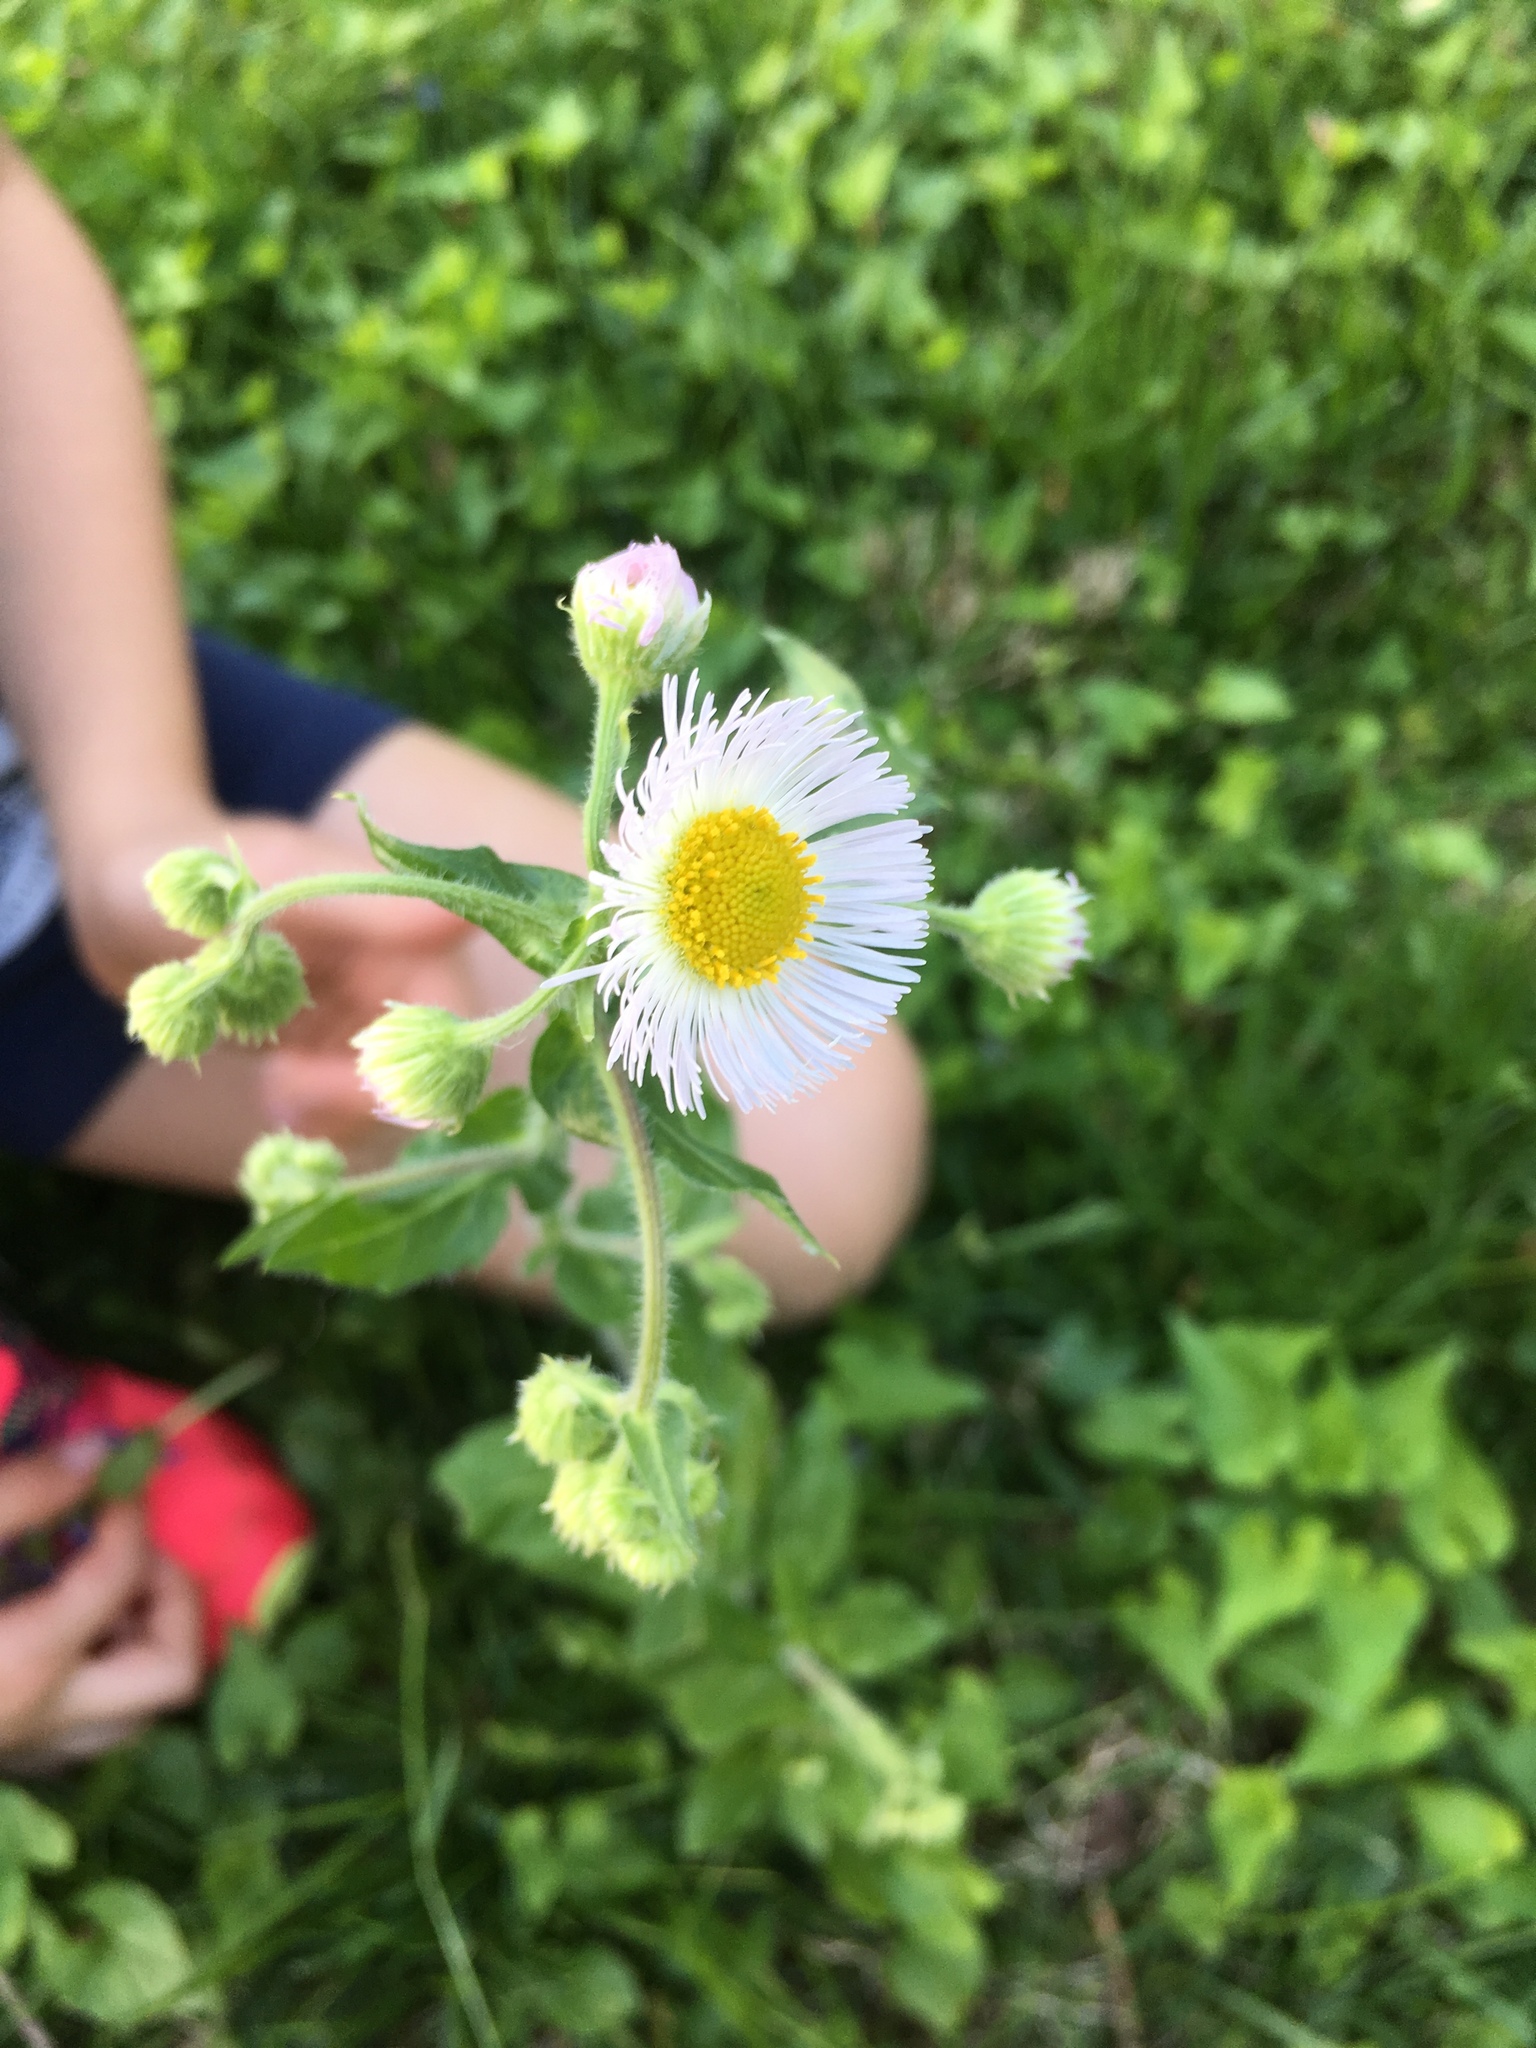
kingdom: Plantae
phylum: Tracheophyta
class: Magnoliopsida
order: Asterales
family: Asteraceae
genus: Erigeron
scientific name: Erigeron philadelphicus
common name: Robin's-plantain
